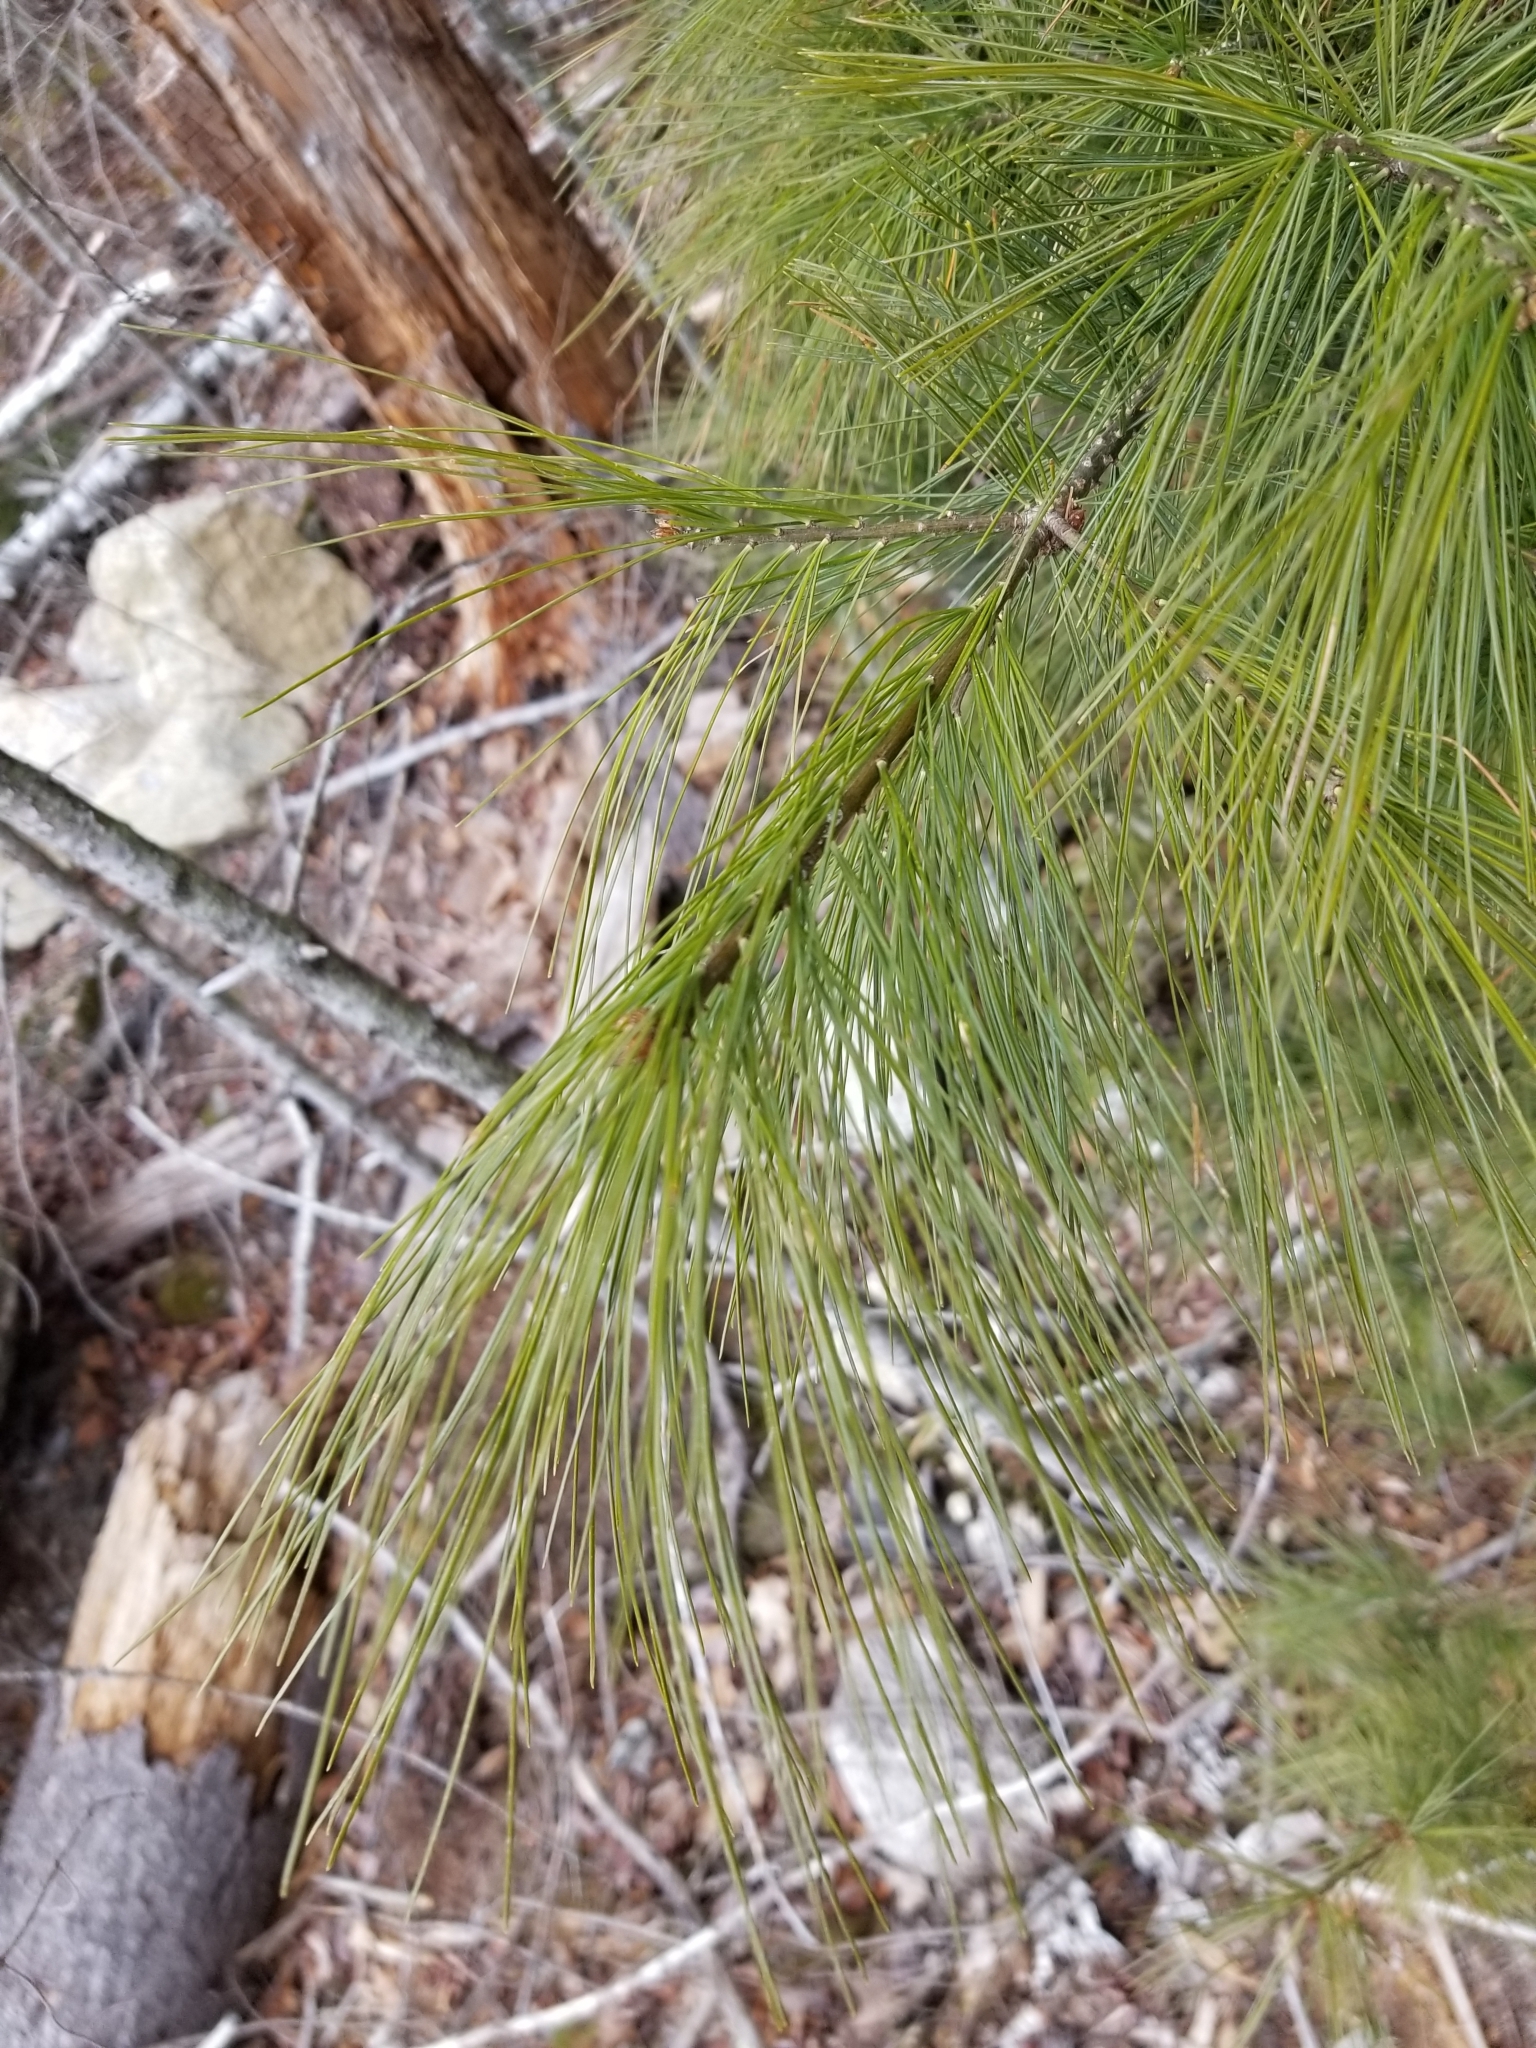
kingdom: Plantae
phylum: Tracheophyta
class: Pinopsida
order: Pinales
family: Pinaceae
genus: Pinus
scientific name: Pinus strobus
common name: Weymouth pine
